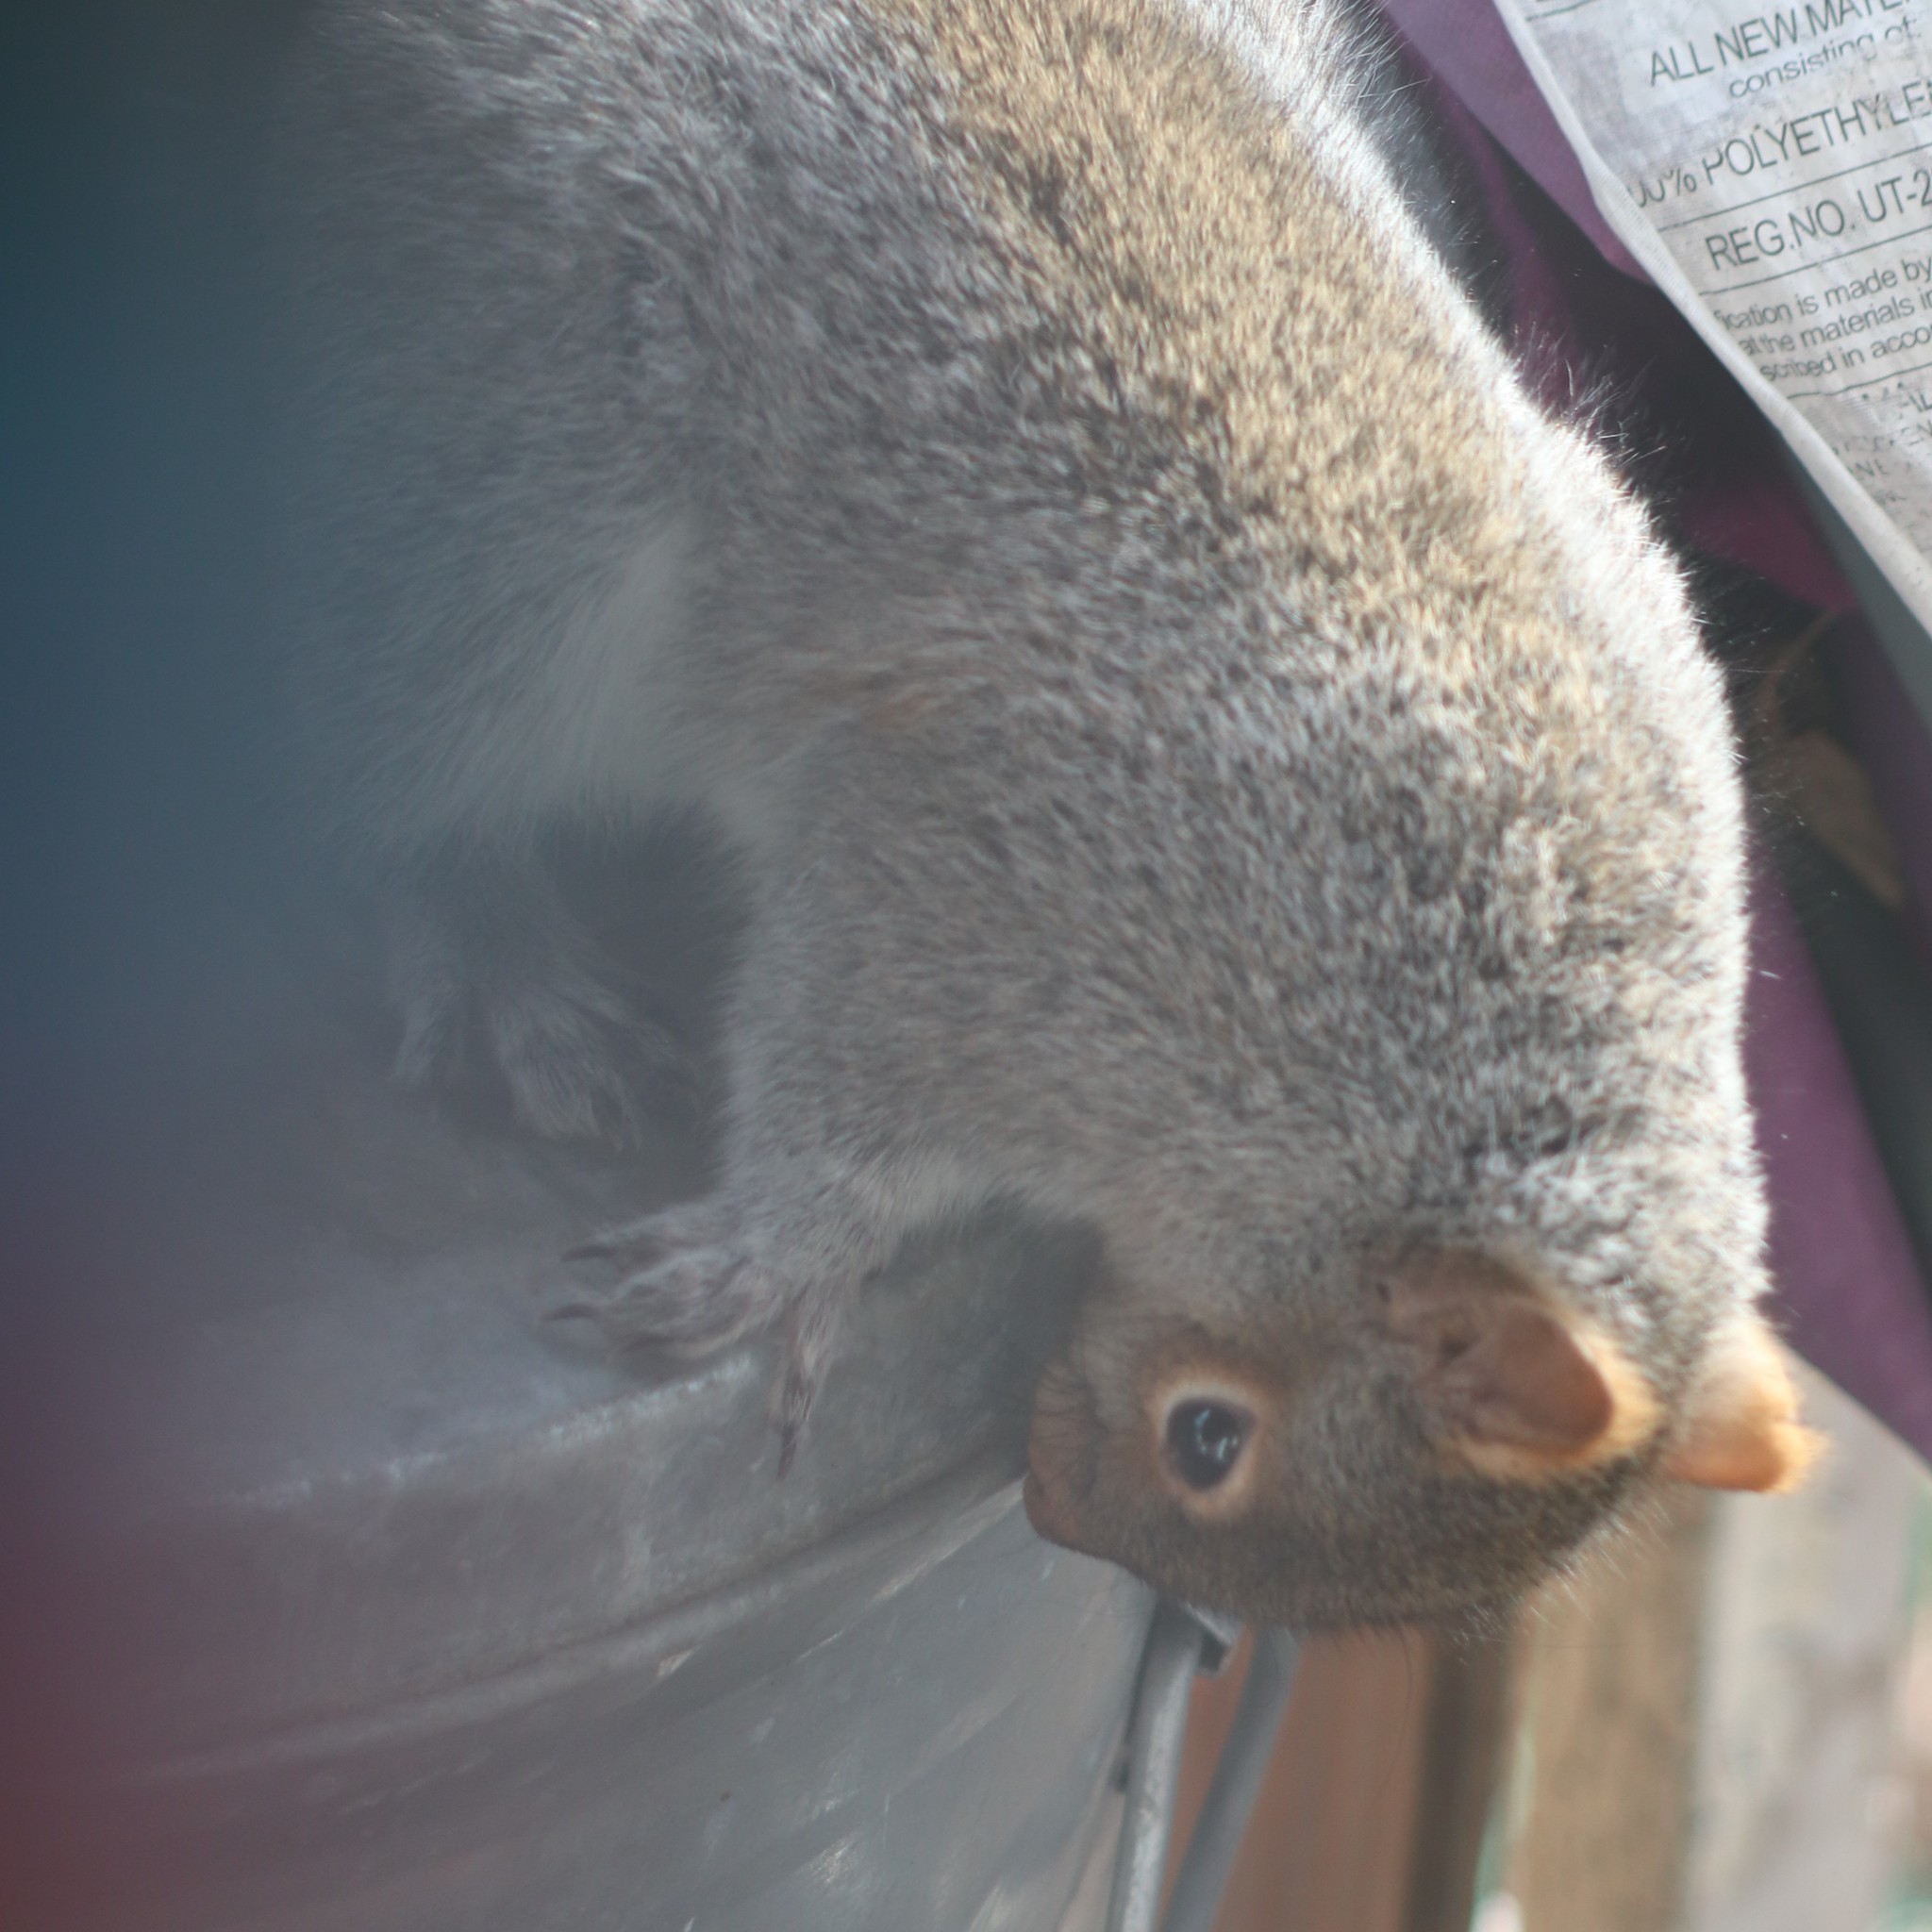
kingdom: Animalia
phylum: Chordata
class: Mammalia
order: Rodentia
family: Sciuridae
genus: Sciurus
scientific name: Sciurus carolinensis
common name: Eastern gray squirrel
